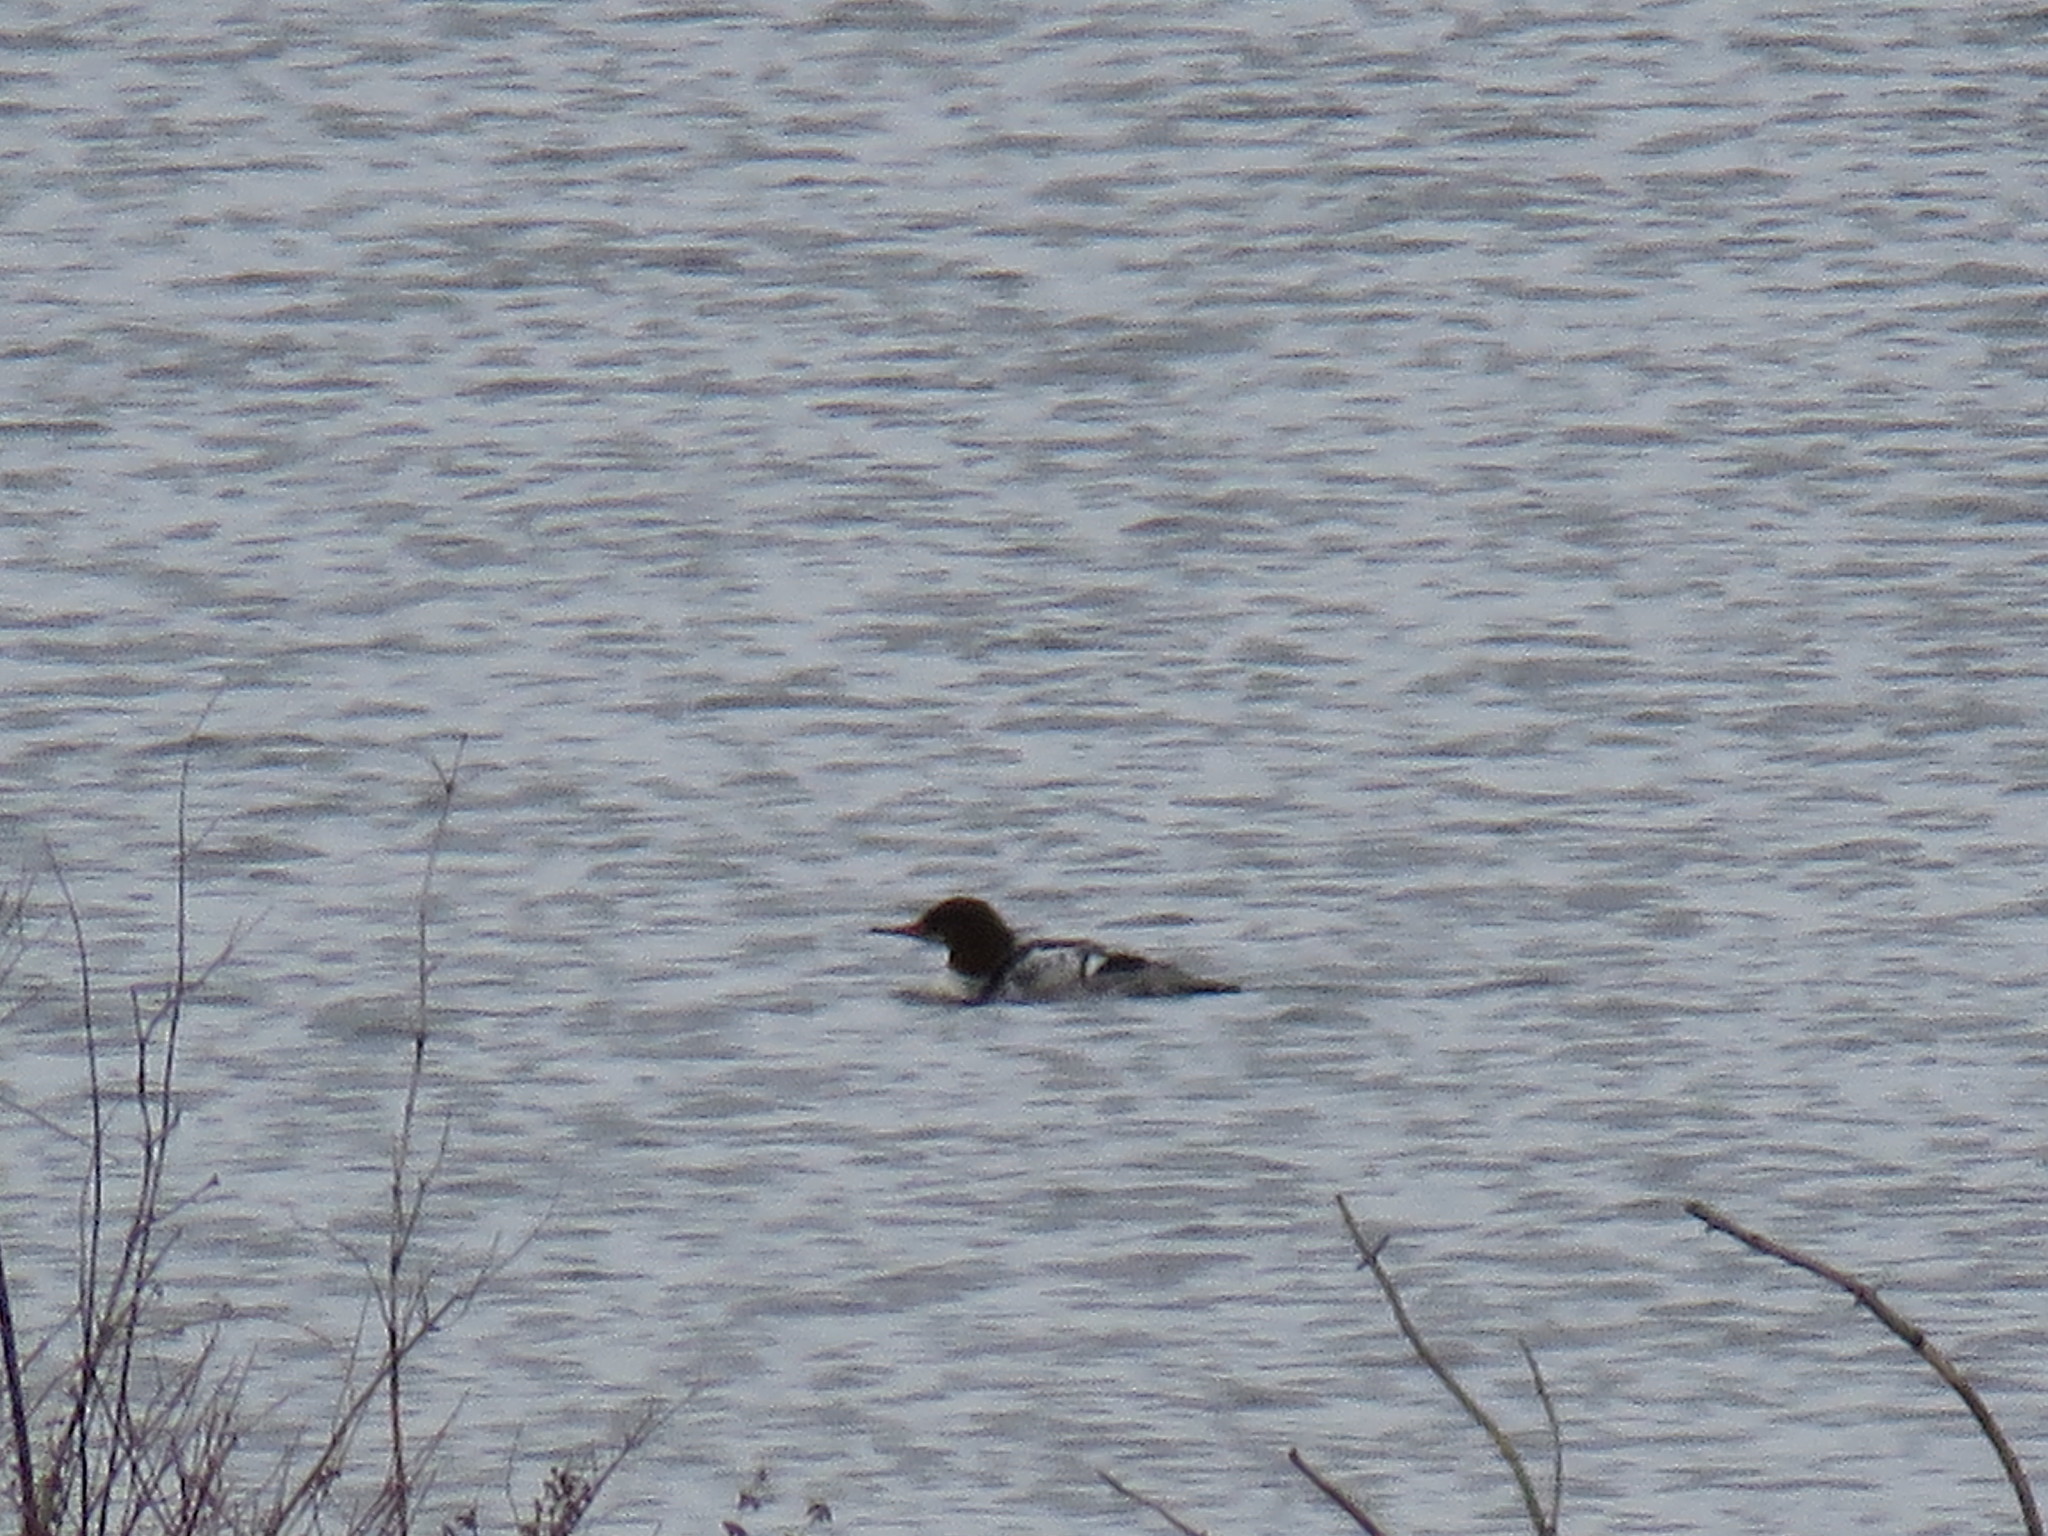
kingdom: Animalia
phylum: Chordata
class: Aves
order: Anseriformes
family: Anatidae
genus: Mergus
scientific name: Mergus merganser
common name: Common merganser
